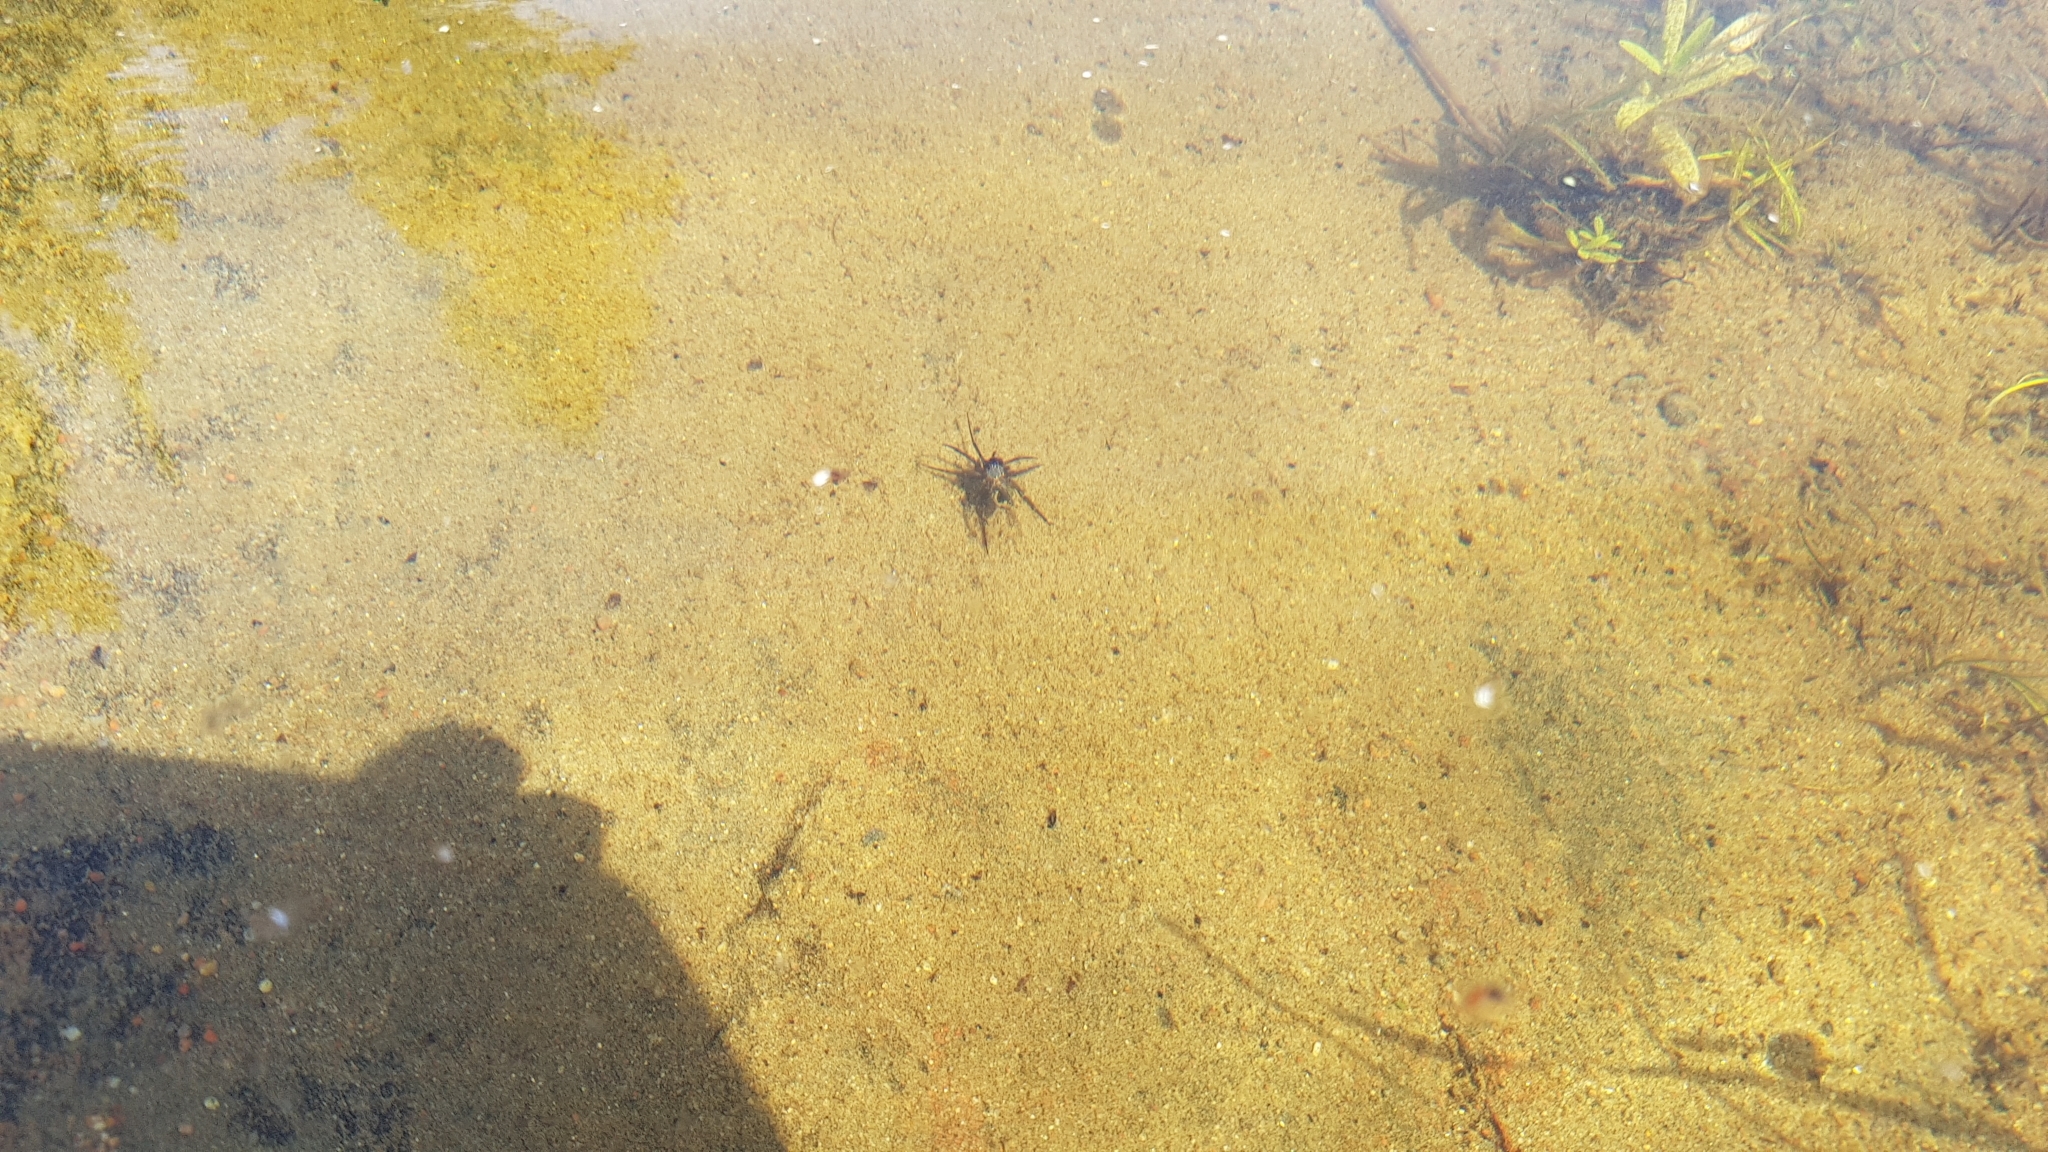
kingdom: Animalia
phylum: Arthropoda
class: Arachnida
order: Araneae
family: Dictynidae
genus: Argyroneta
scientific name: Argyroneta aquatica
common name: Water spider
